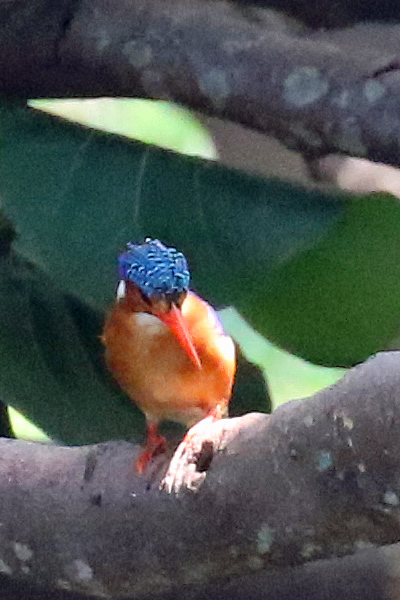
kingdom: Animalia
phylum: Chordata
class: Aves
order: Coraciiformes
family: Alcedinidae
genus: Corythornis
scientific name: Corythornis cristatus
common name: Malachite kingfisher
